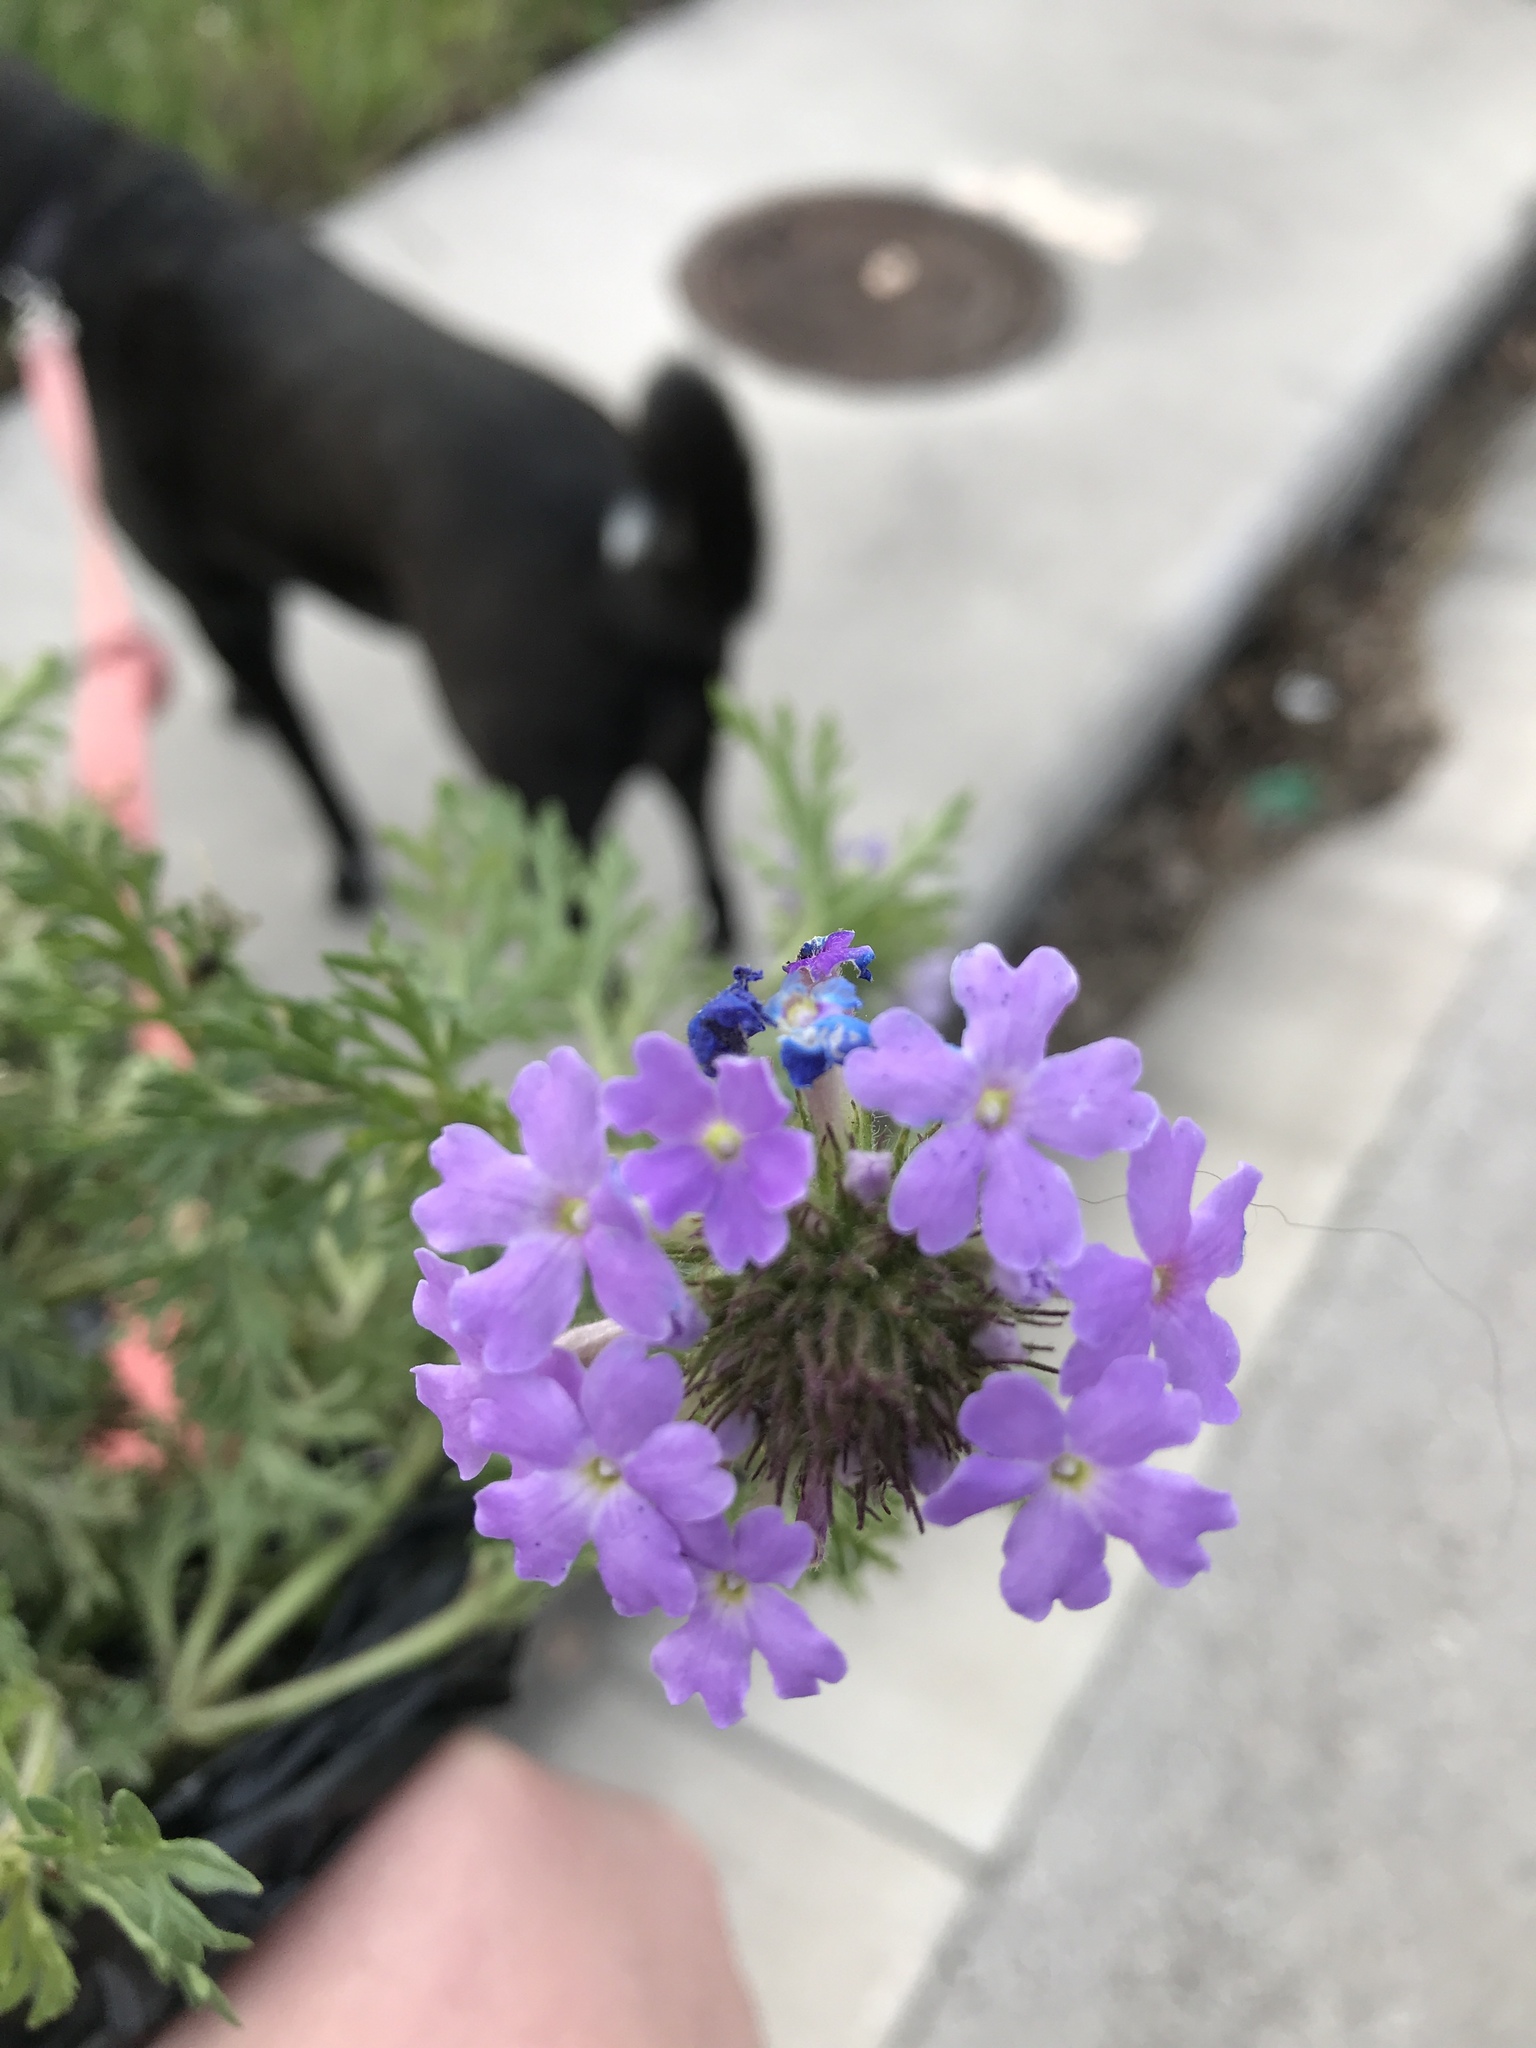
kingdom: Plantae
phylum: Tracheophyta
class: Magnoliopsida
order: Lamiales
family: Verbenaceae
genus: Verbena
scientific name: Verbena bipinnatifida
